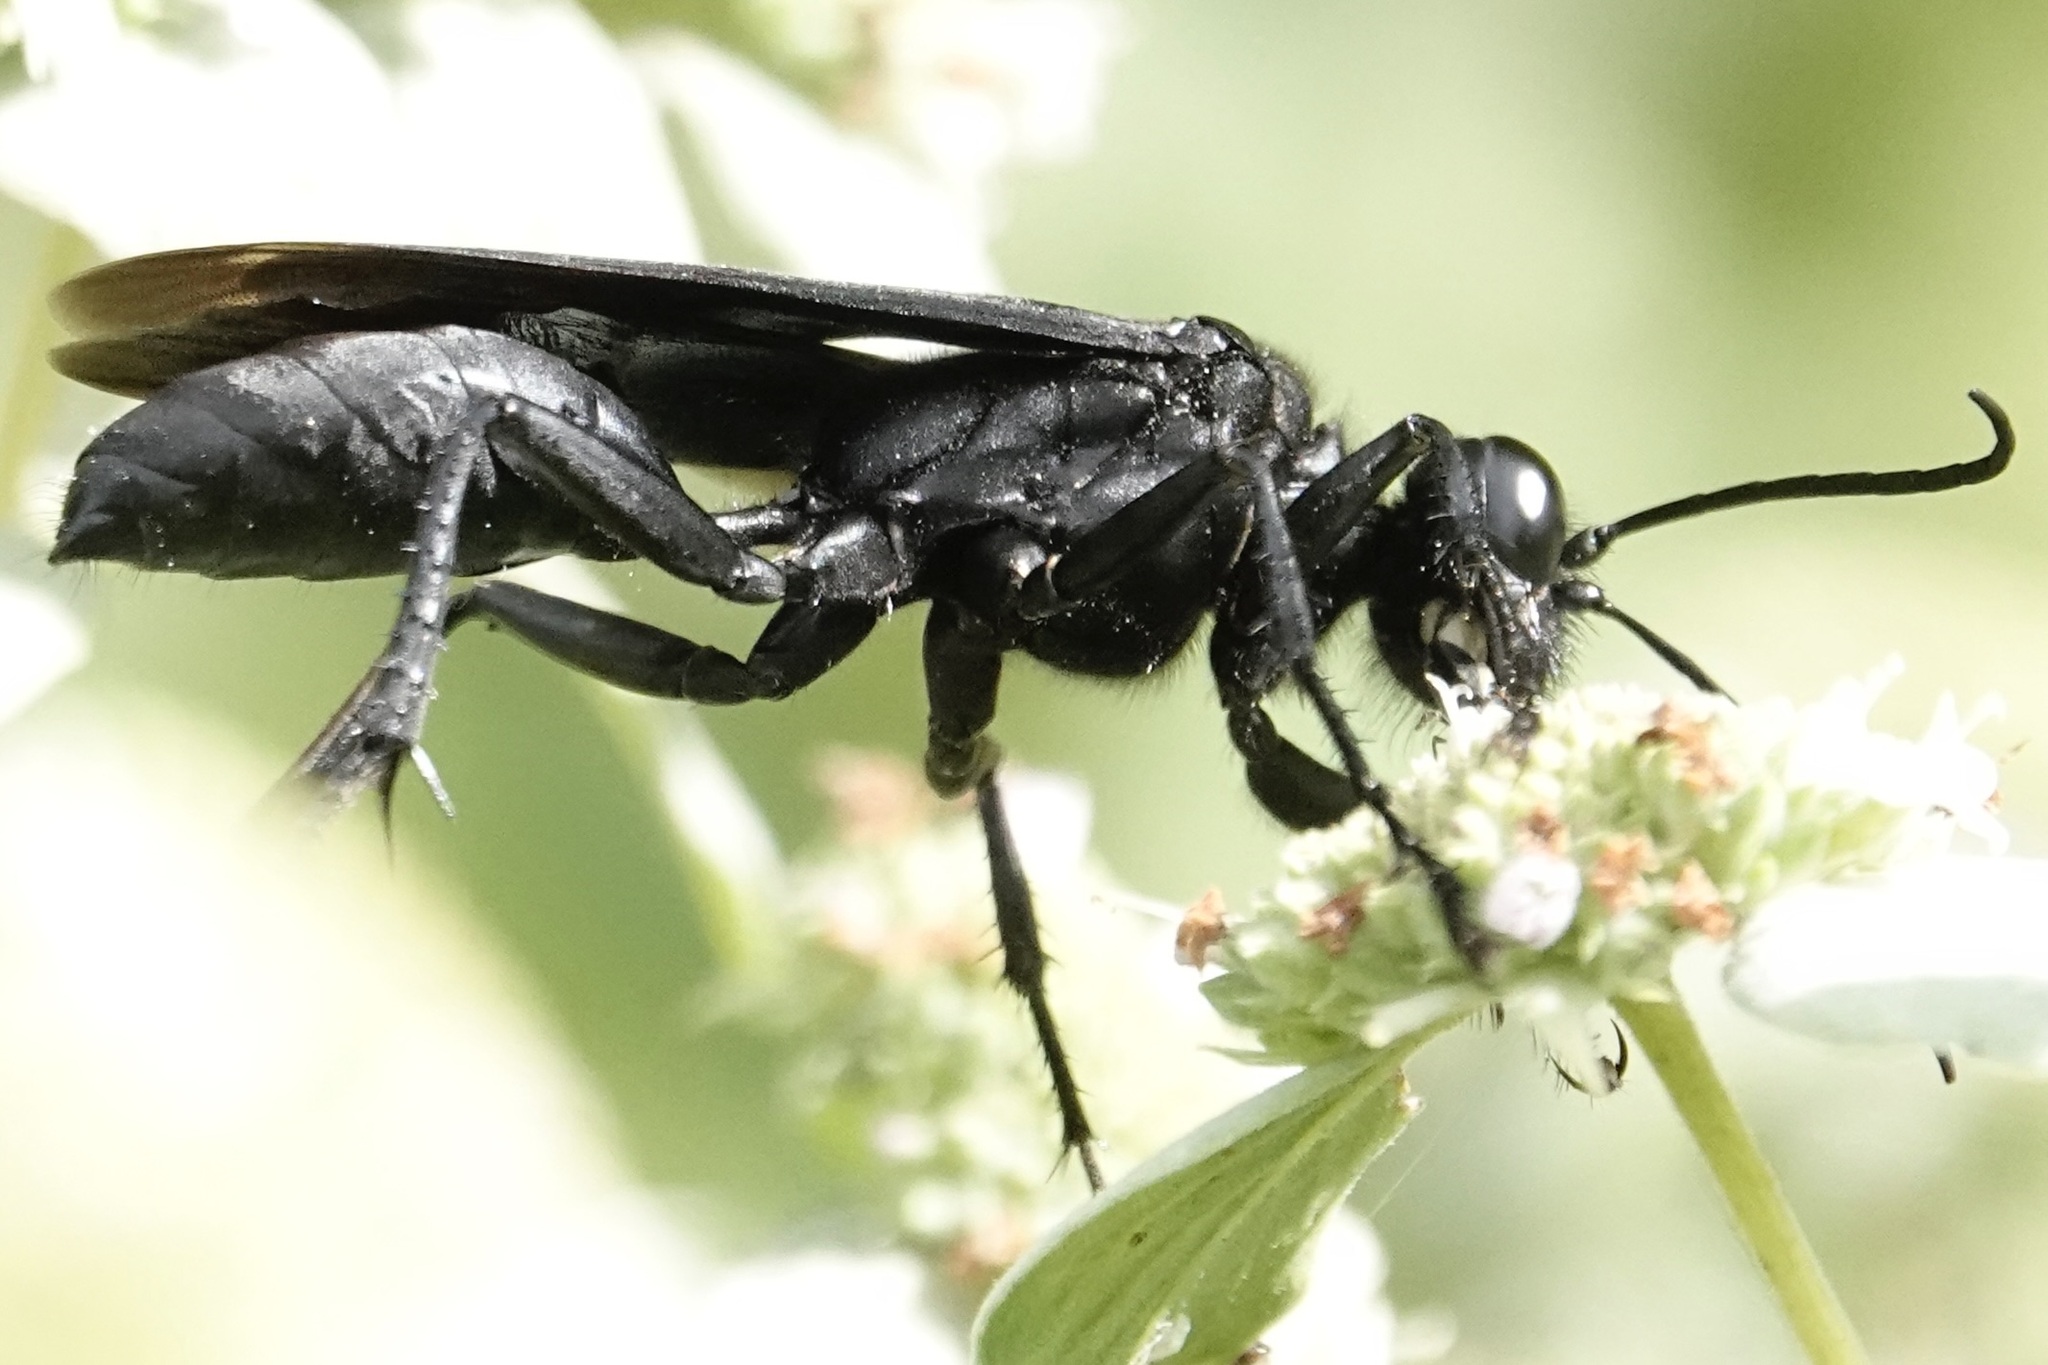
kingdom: Animalia
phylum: Arthropoda
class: Insecta
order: Hymenoptera
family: Sphecidae
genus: Sphex
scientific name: Sphex pensylvanicus
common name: Great black digger wasp
